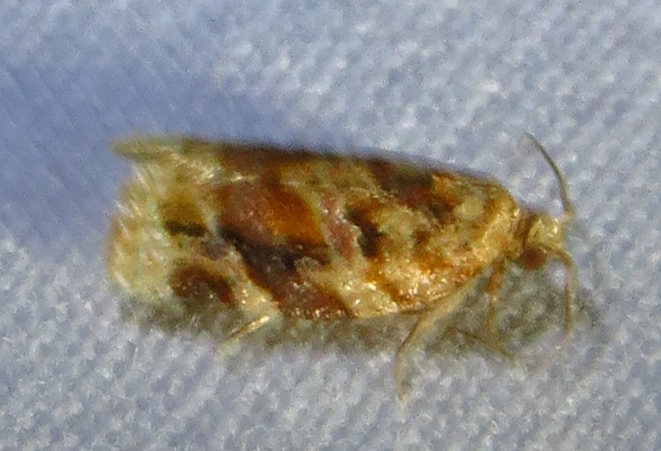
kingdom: Animalia
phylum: Arthropoda
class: Insecta
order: Lepidoptera
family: Tortricidae
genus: Argyrotaenia
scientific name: Argyrotaenia velutinana
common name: Red-banded leafroller moth
